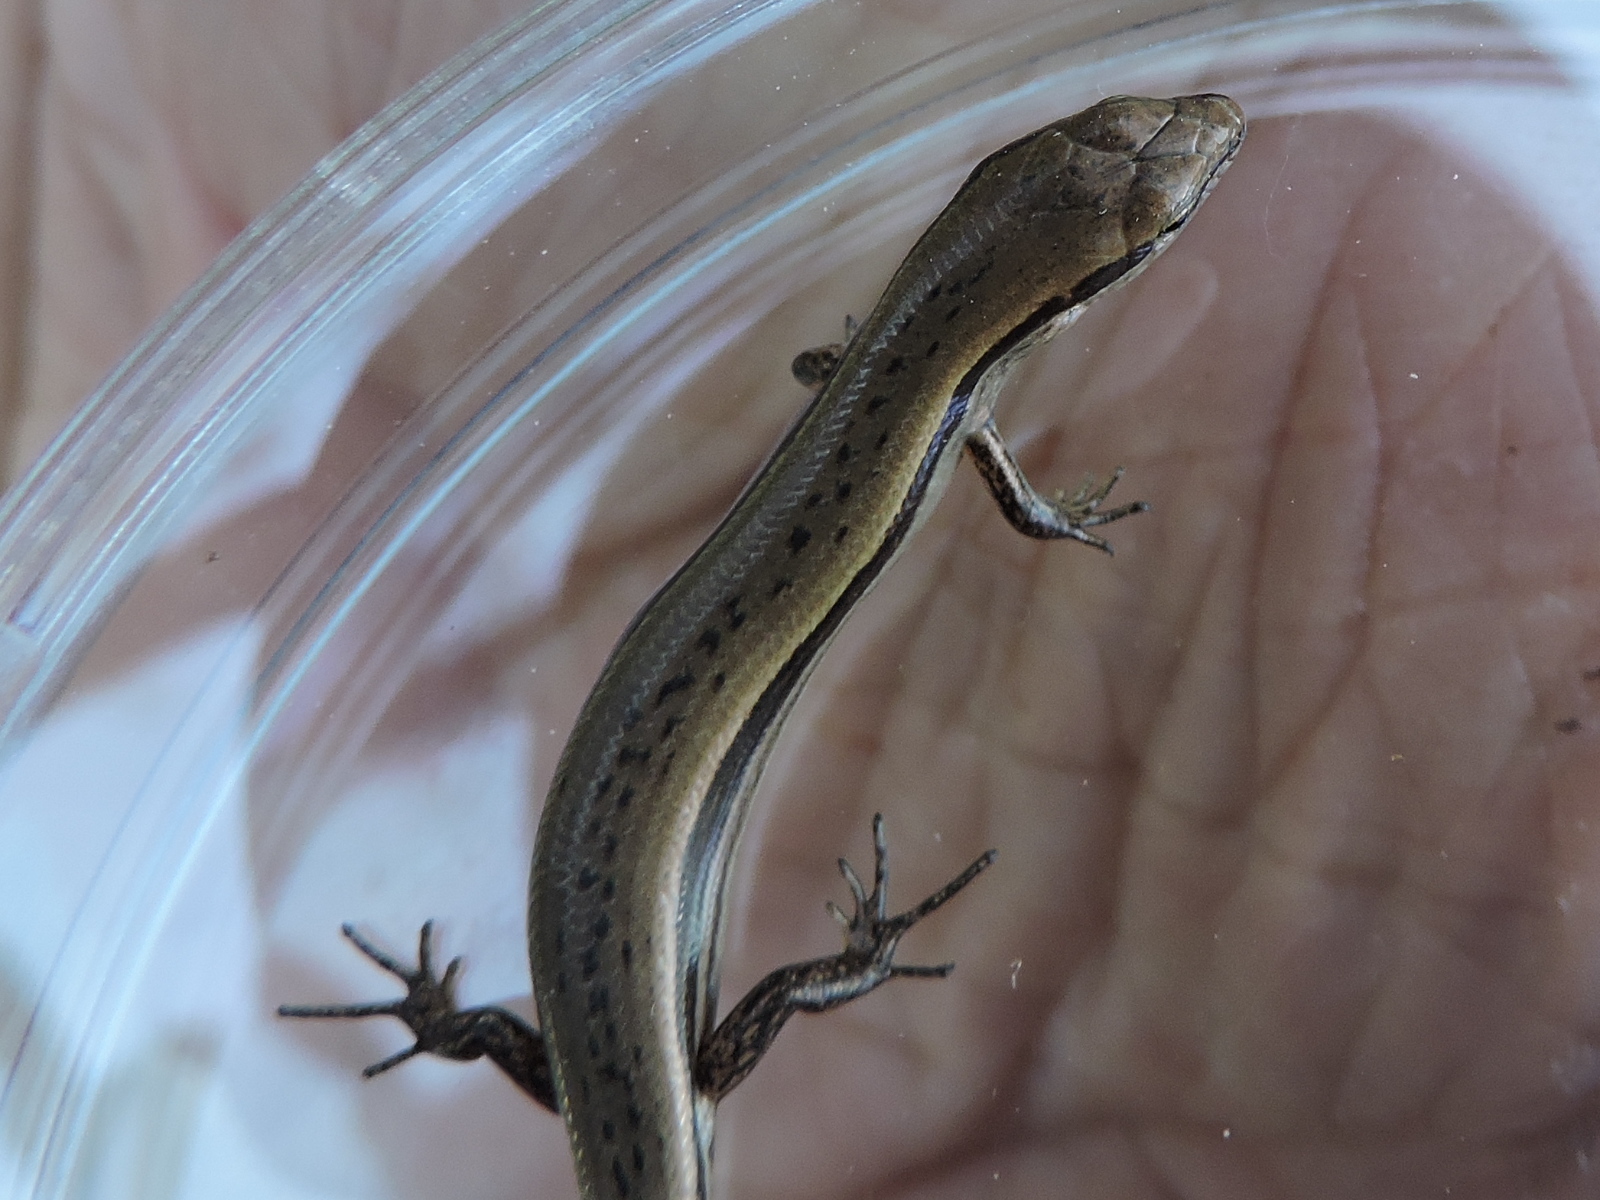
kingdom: Animalia
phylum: Chordata
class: Squamata
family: Scincidae
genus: Scincella
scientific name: Scincella lateralis
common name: Ground skink
